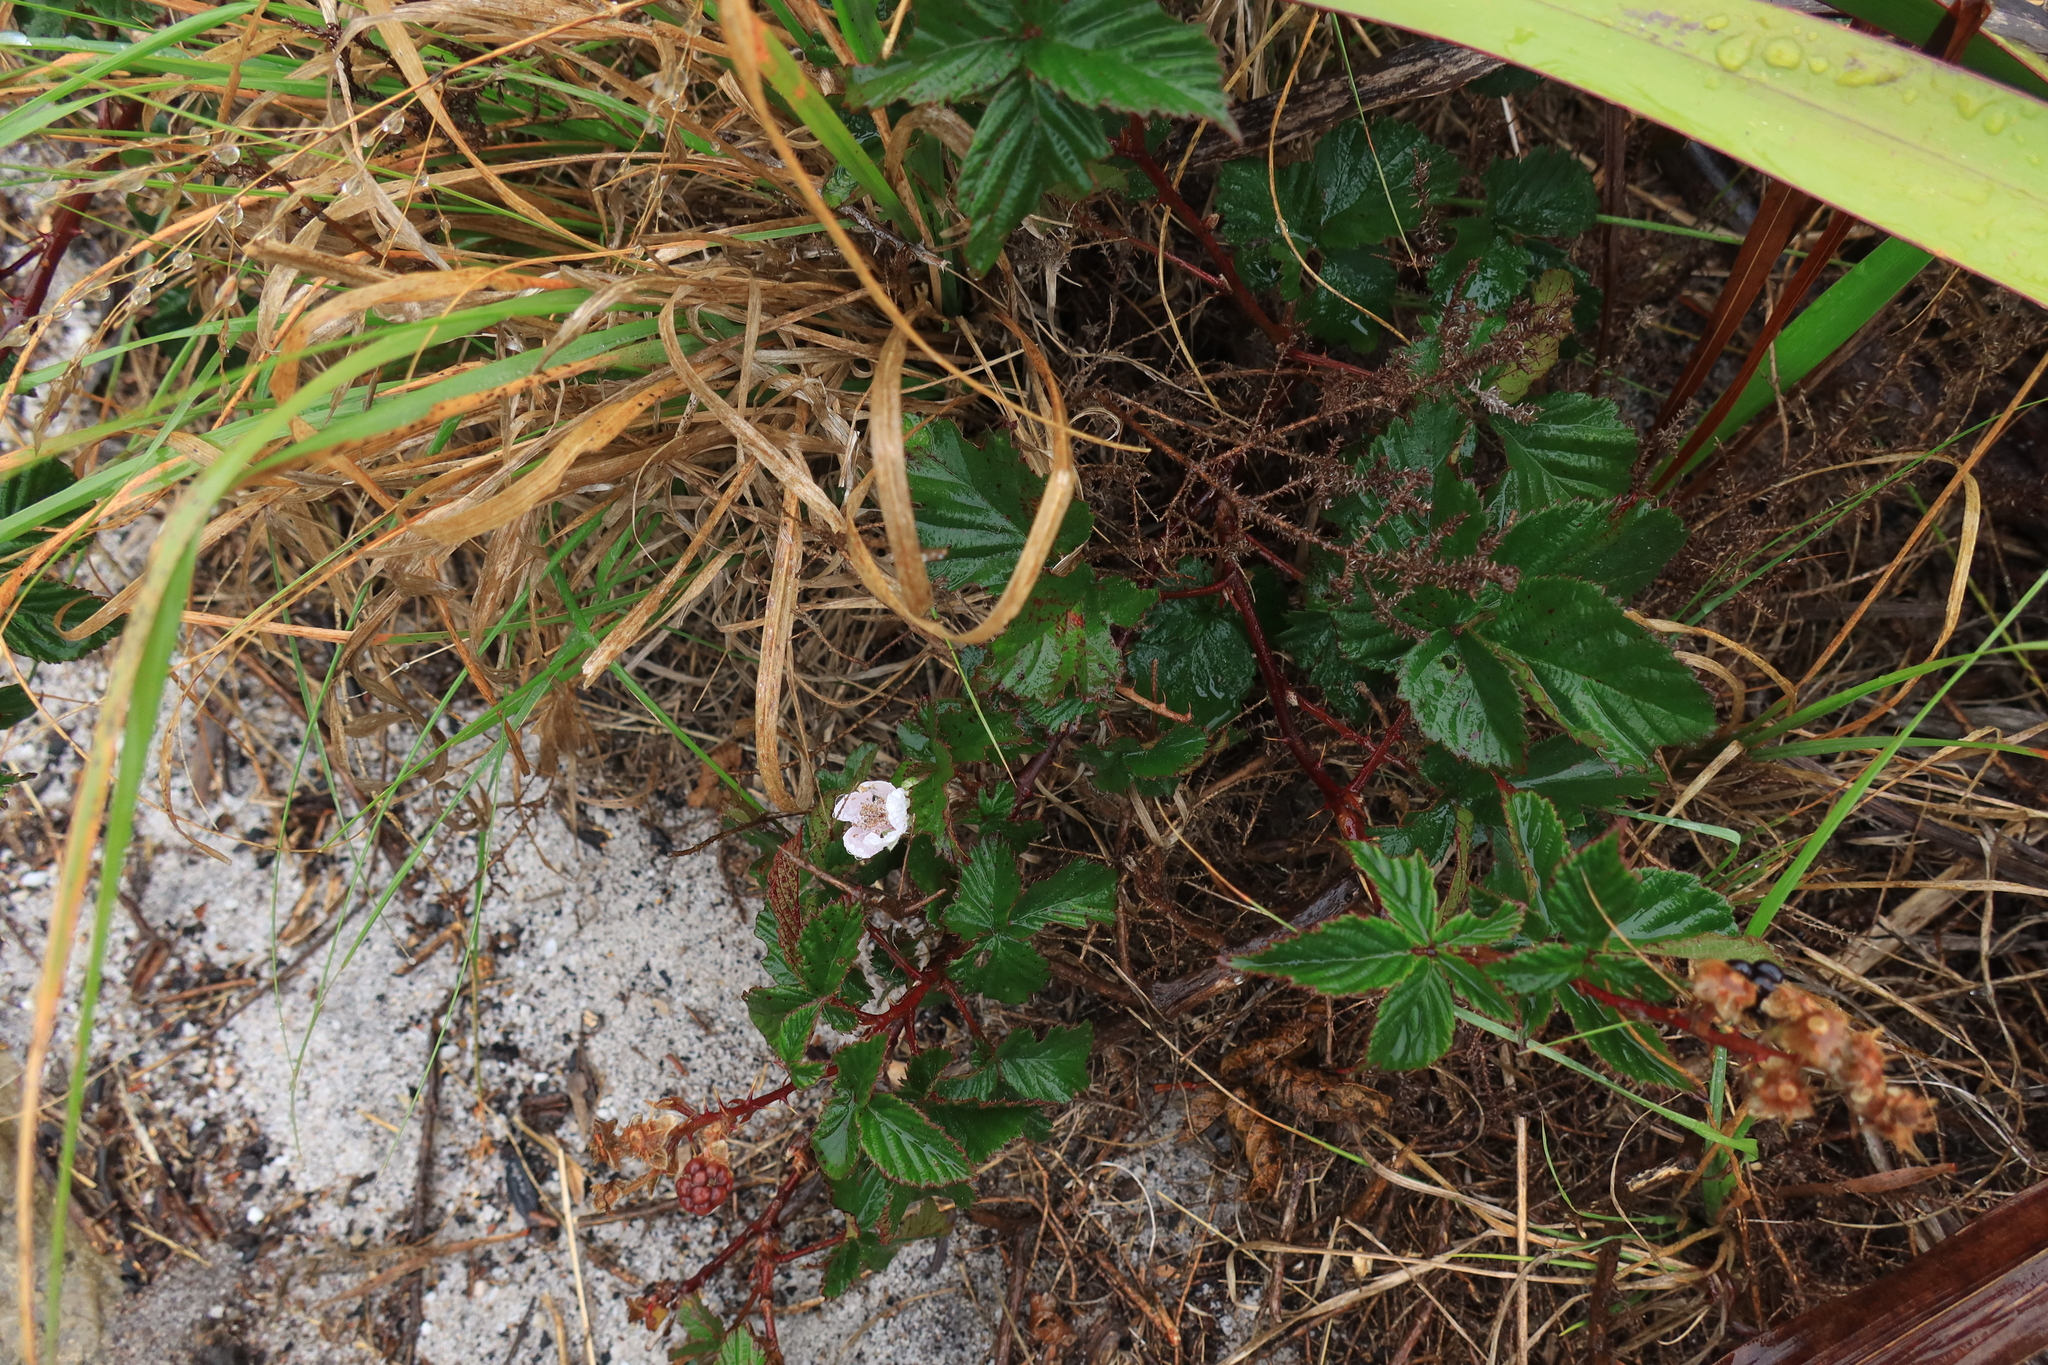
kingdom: Plantae
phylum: Tracheophyta
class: Magnoliopsida
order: Rosales
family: Rosaceae
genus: Rubus
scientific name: Rubus affinis
